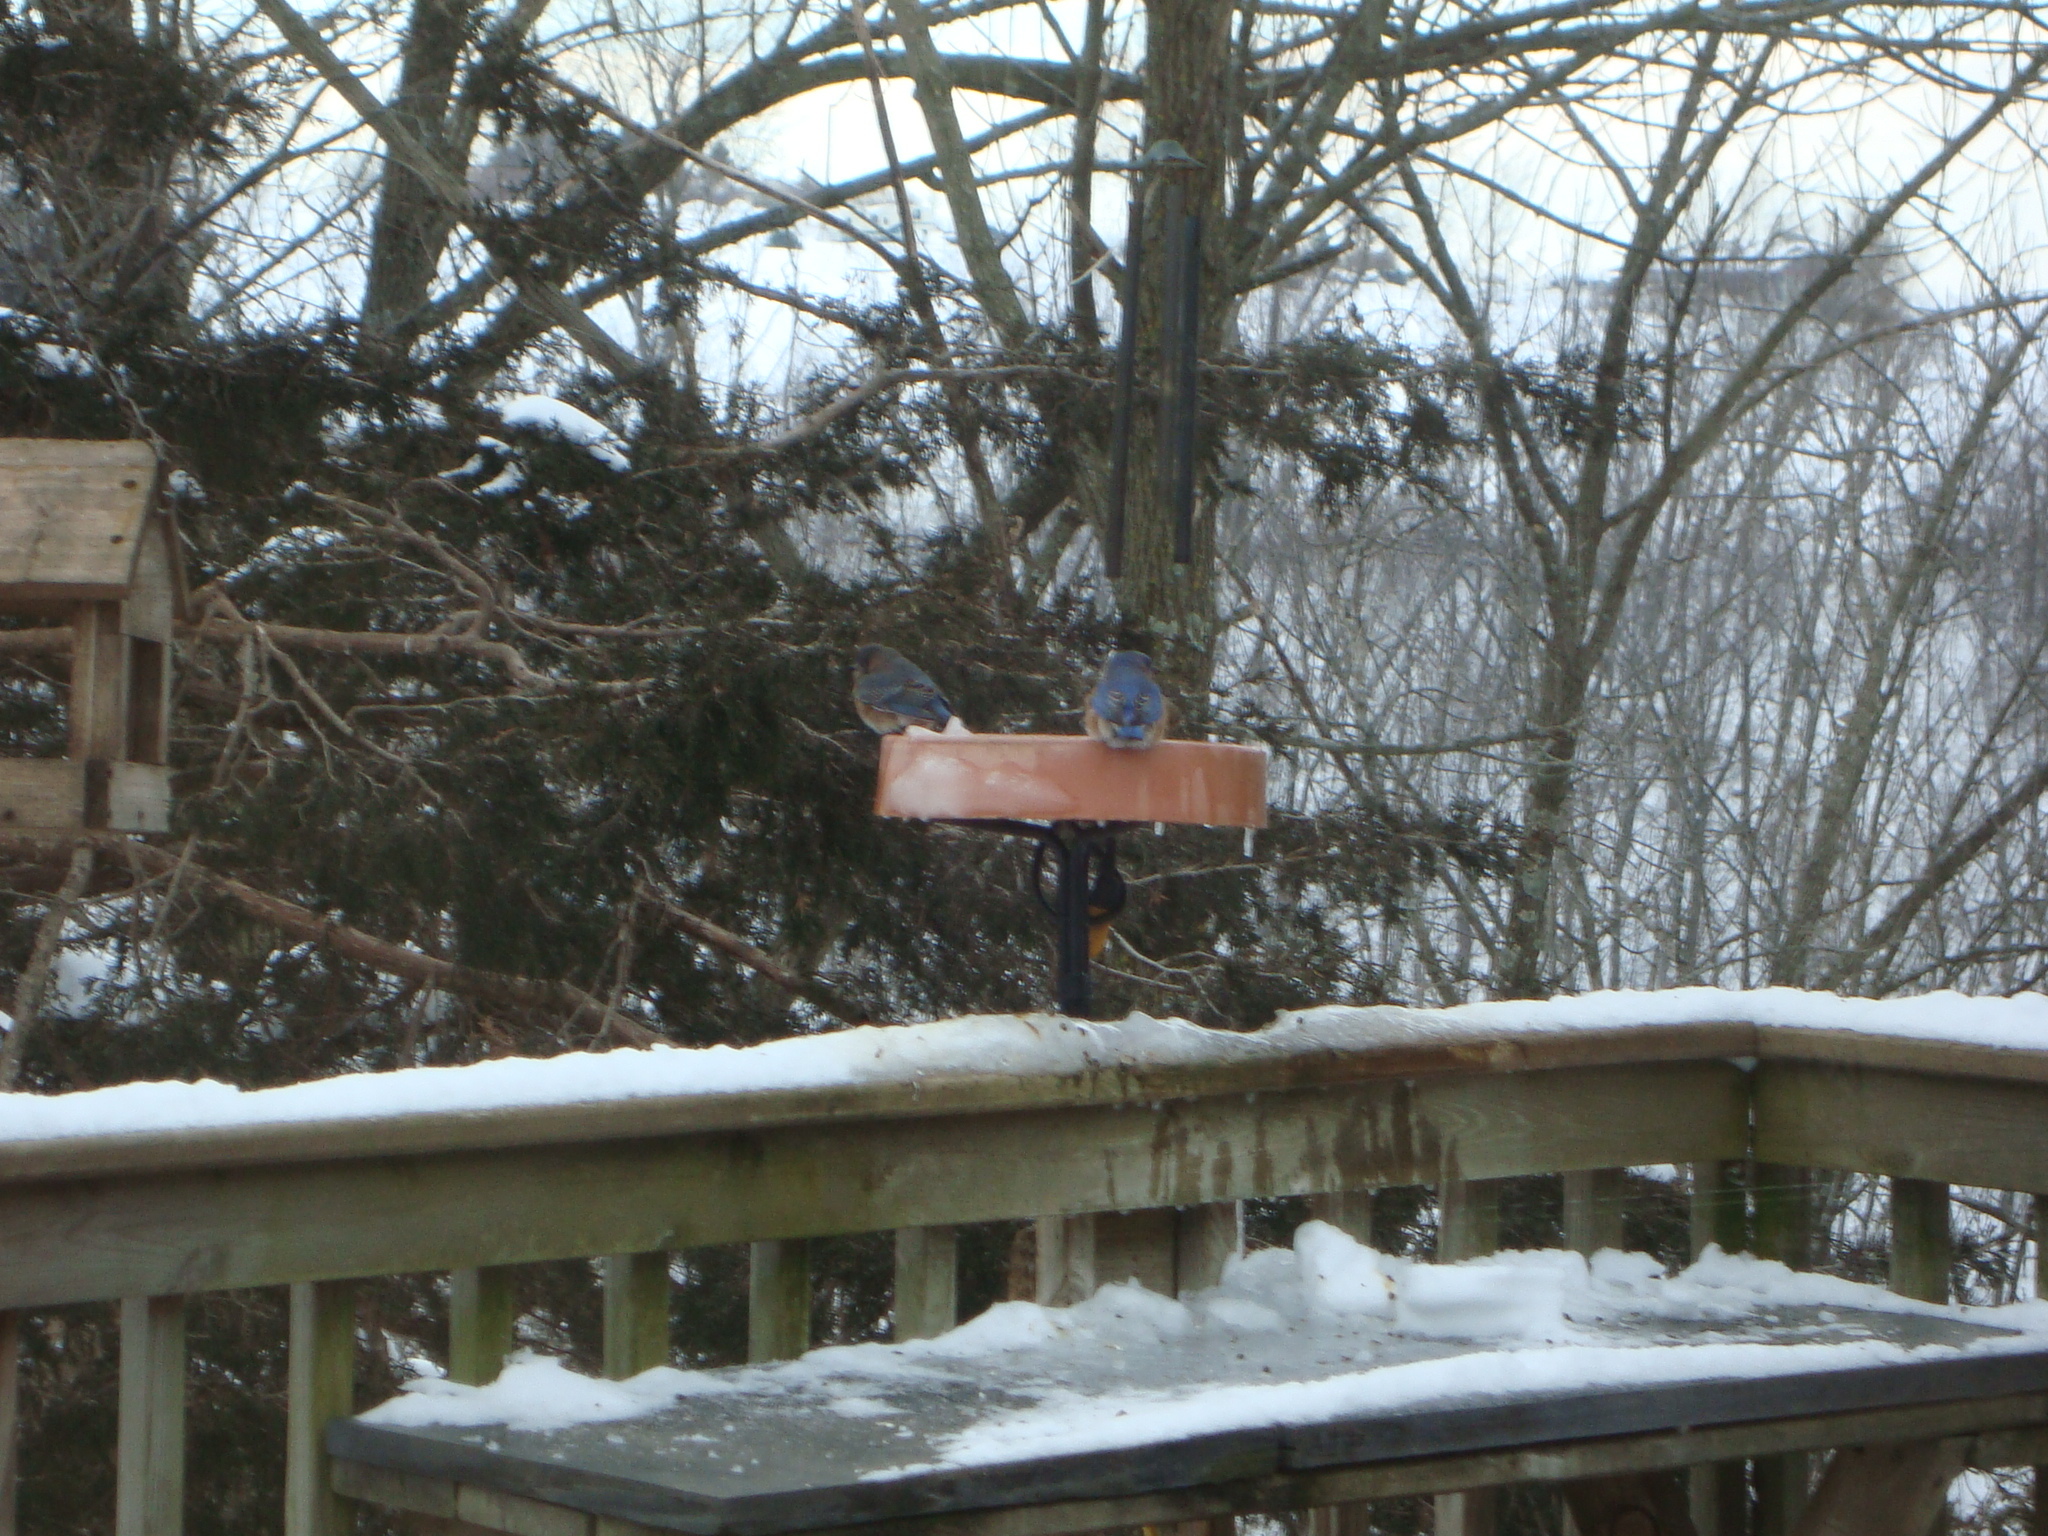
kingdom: Animalia
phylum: Chordata
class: Aves
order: Passeriformes
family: Turdidae
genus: Sialia
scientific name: Sialia sialis
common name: Eastern bluebird
